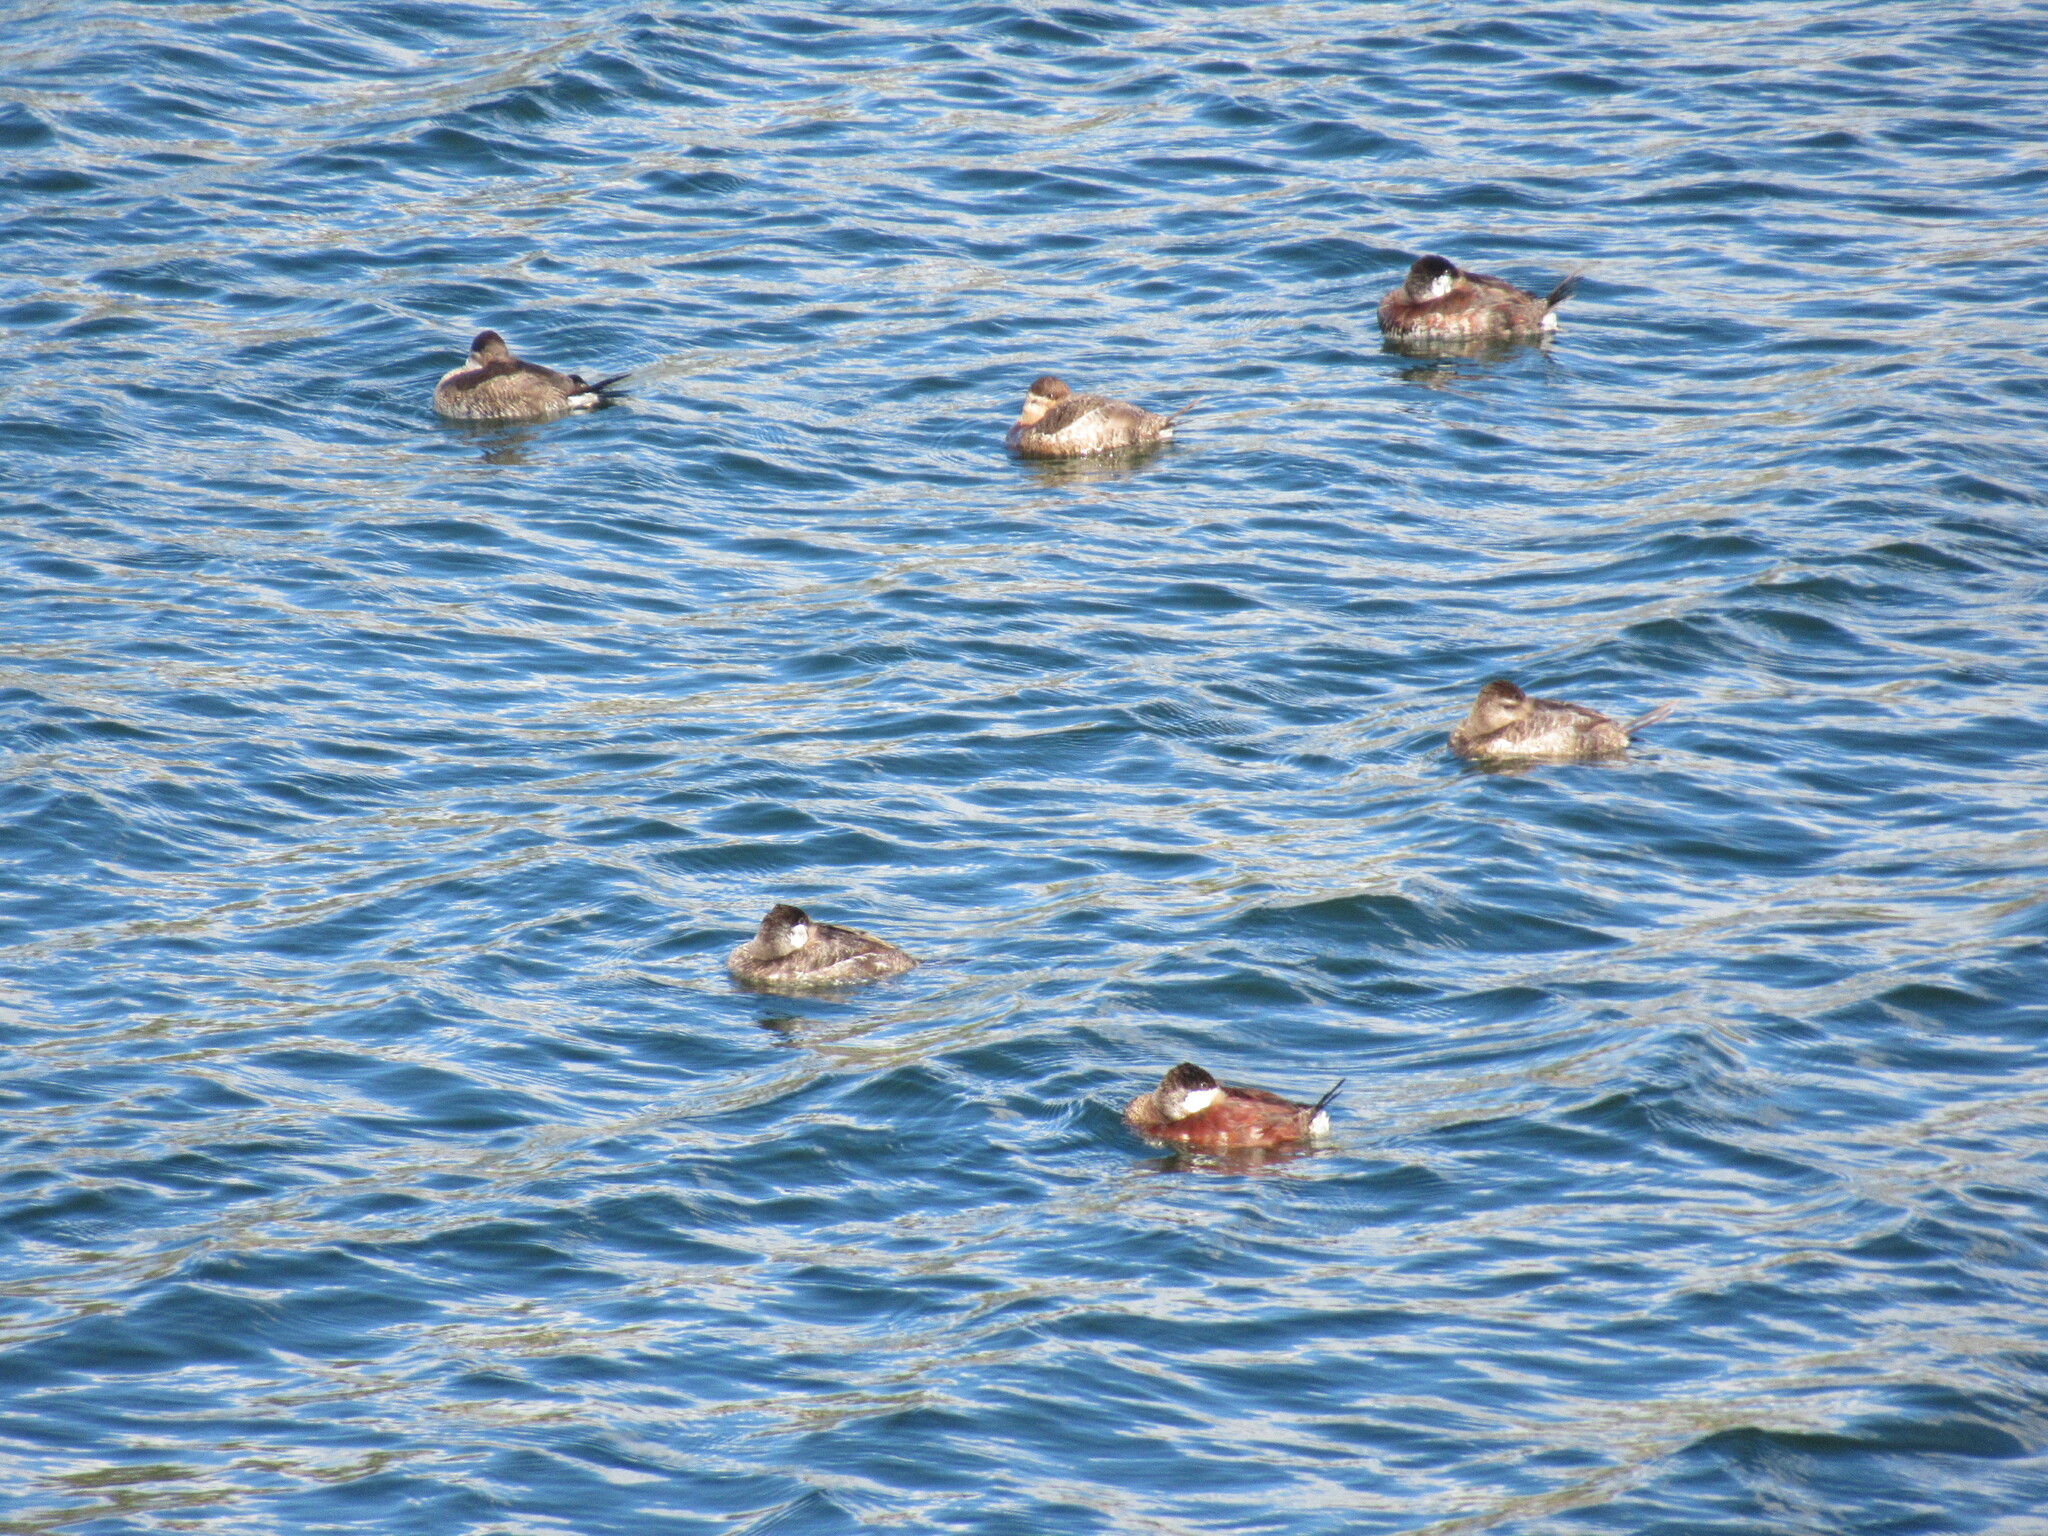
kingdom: Animalia
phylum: Chordata
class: Aves
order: Anseriformes
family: Anatidae
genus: Oxyura
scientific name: Oxyura jamaicensis
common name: Ruddy duck
